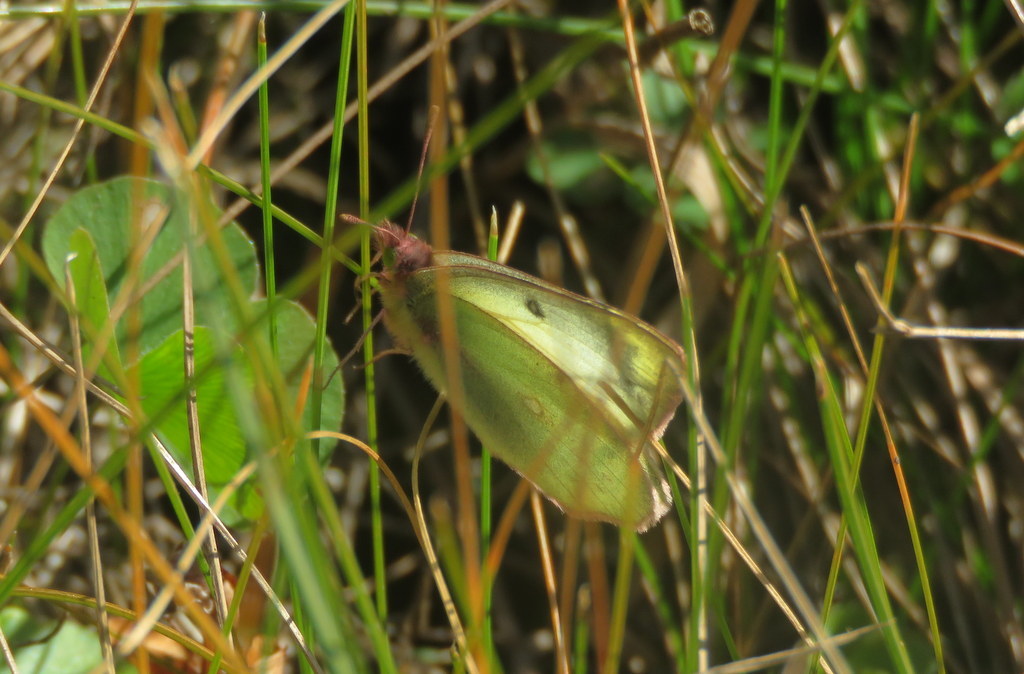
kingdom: Animalia
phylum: Arthropoda
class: Insecta
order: Lepidoptera
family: Pieridae
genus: Colias
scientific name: Colias lesbia
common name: Lesbia clouded yellow
